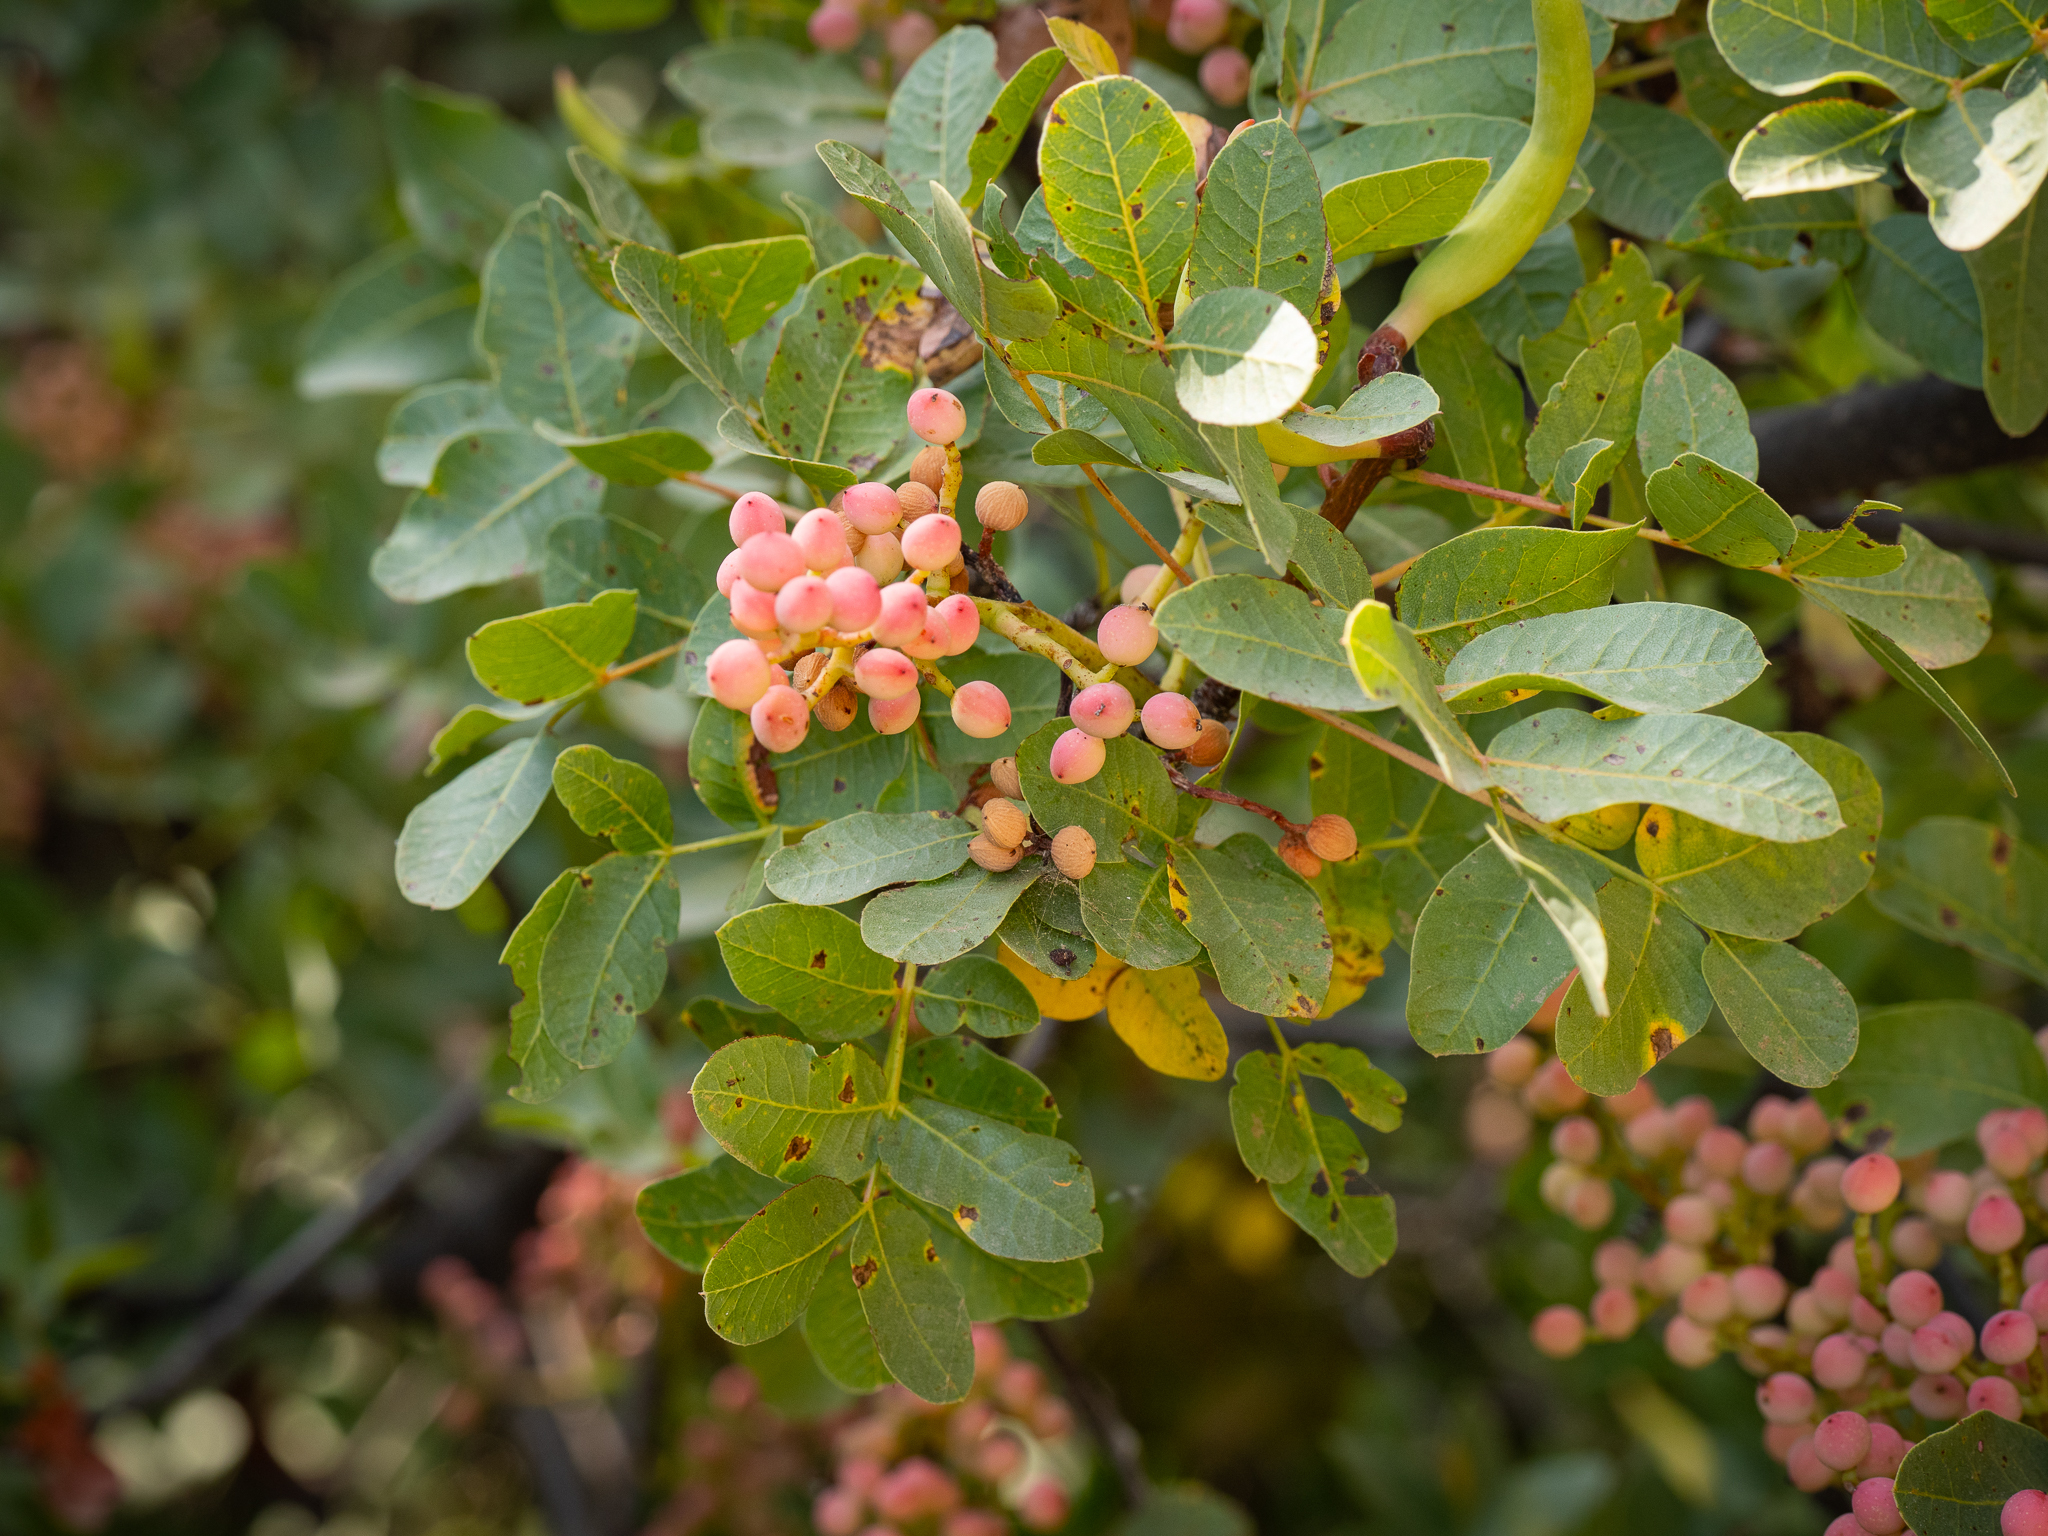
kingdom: Plantae
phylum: Tracheophyta
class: Magnoliopsida
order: Sapindales
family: Anacardiaceae
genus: Pistacia
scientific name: Pistacia terebinthus
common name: Terebinth
